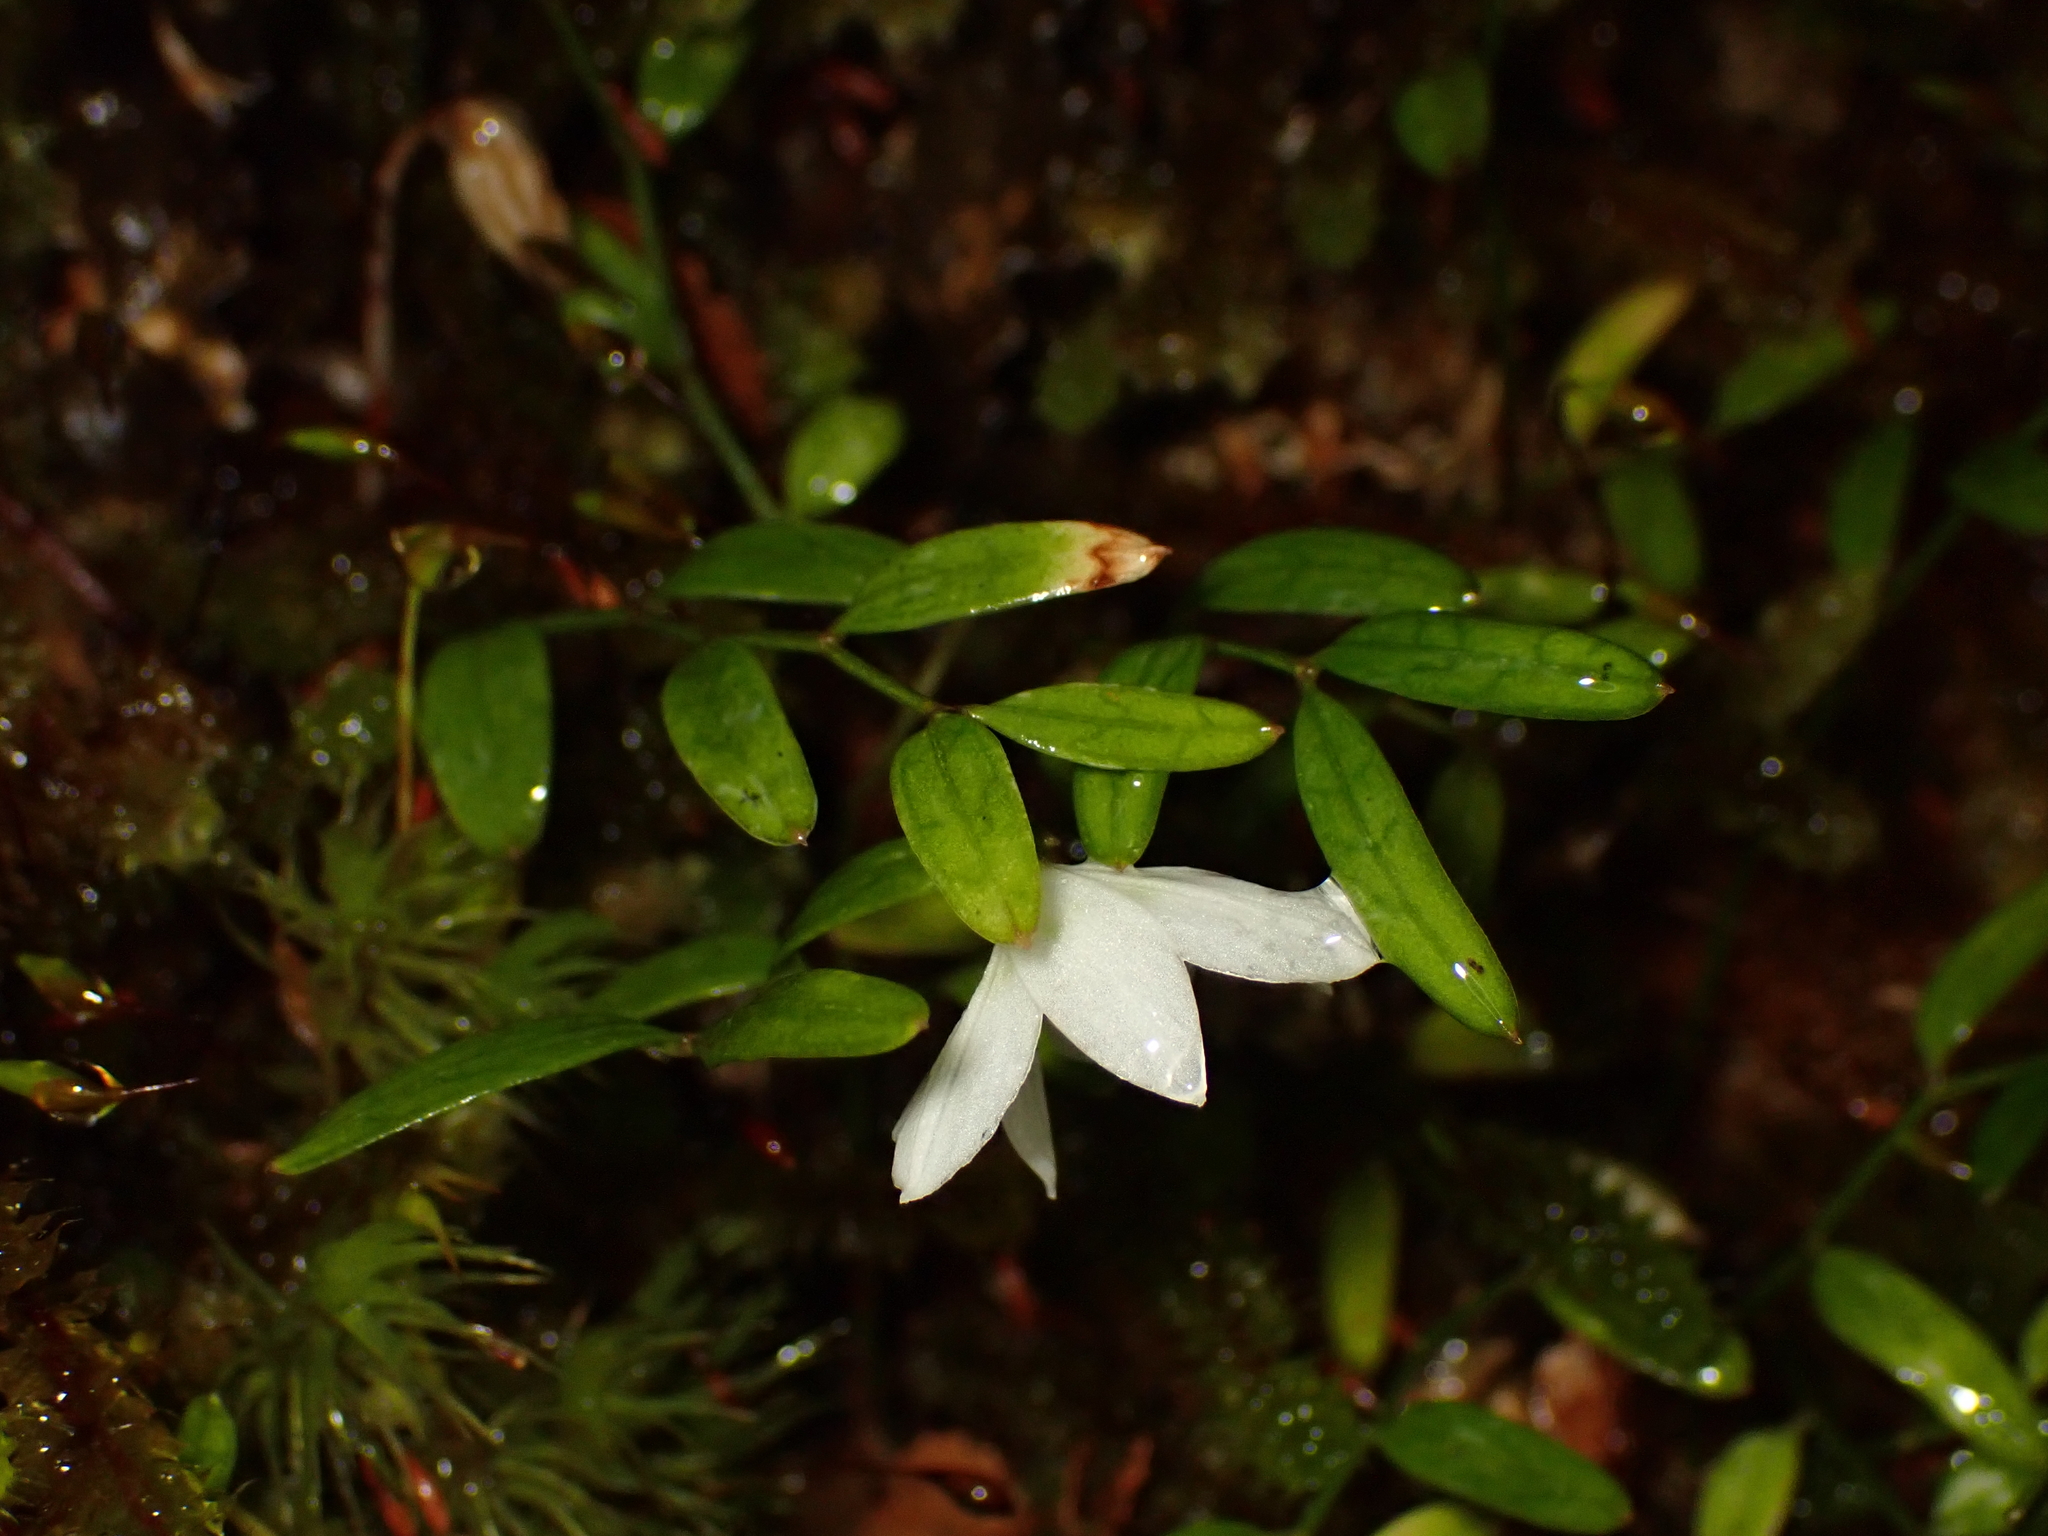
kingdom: Plantae
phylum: Tracheophyta
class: Liliopsida
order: Liliales
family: Alstroemeriaceae
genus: Luzuriaga
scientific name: Luzuriaga parviflora
